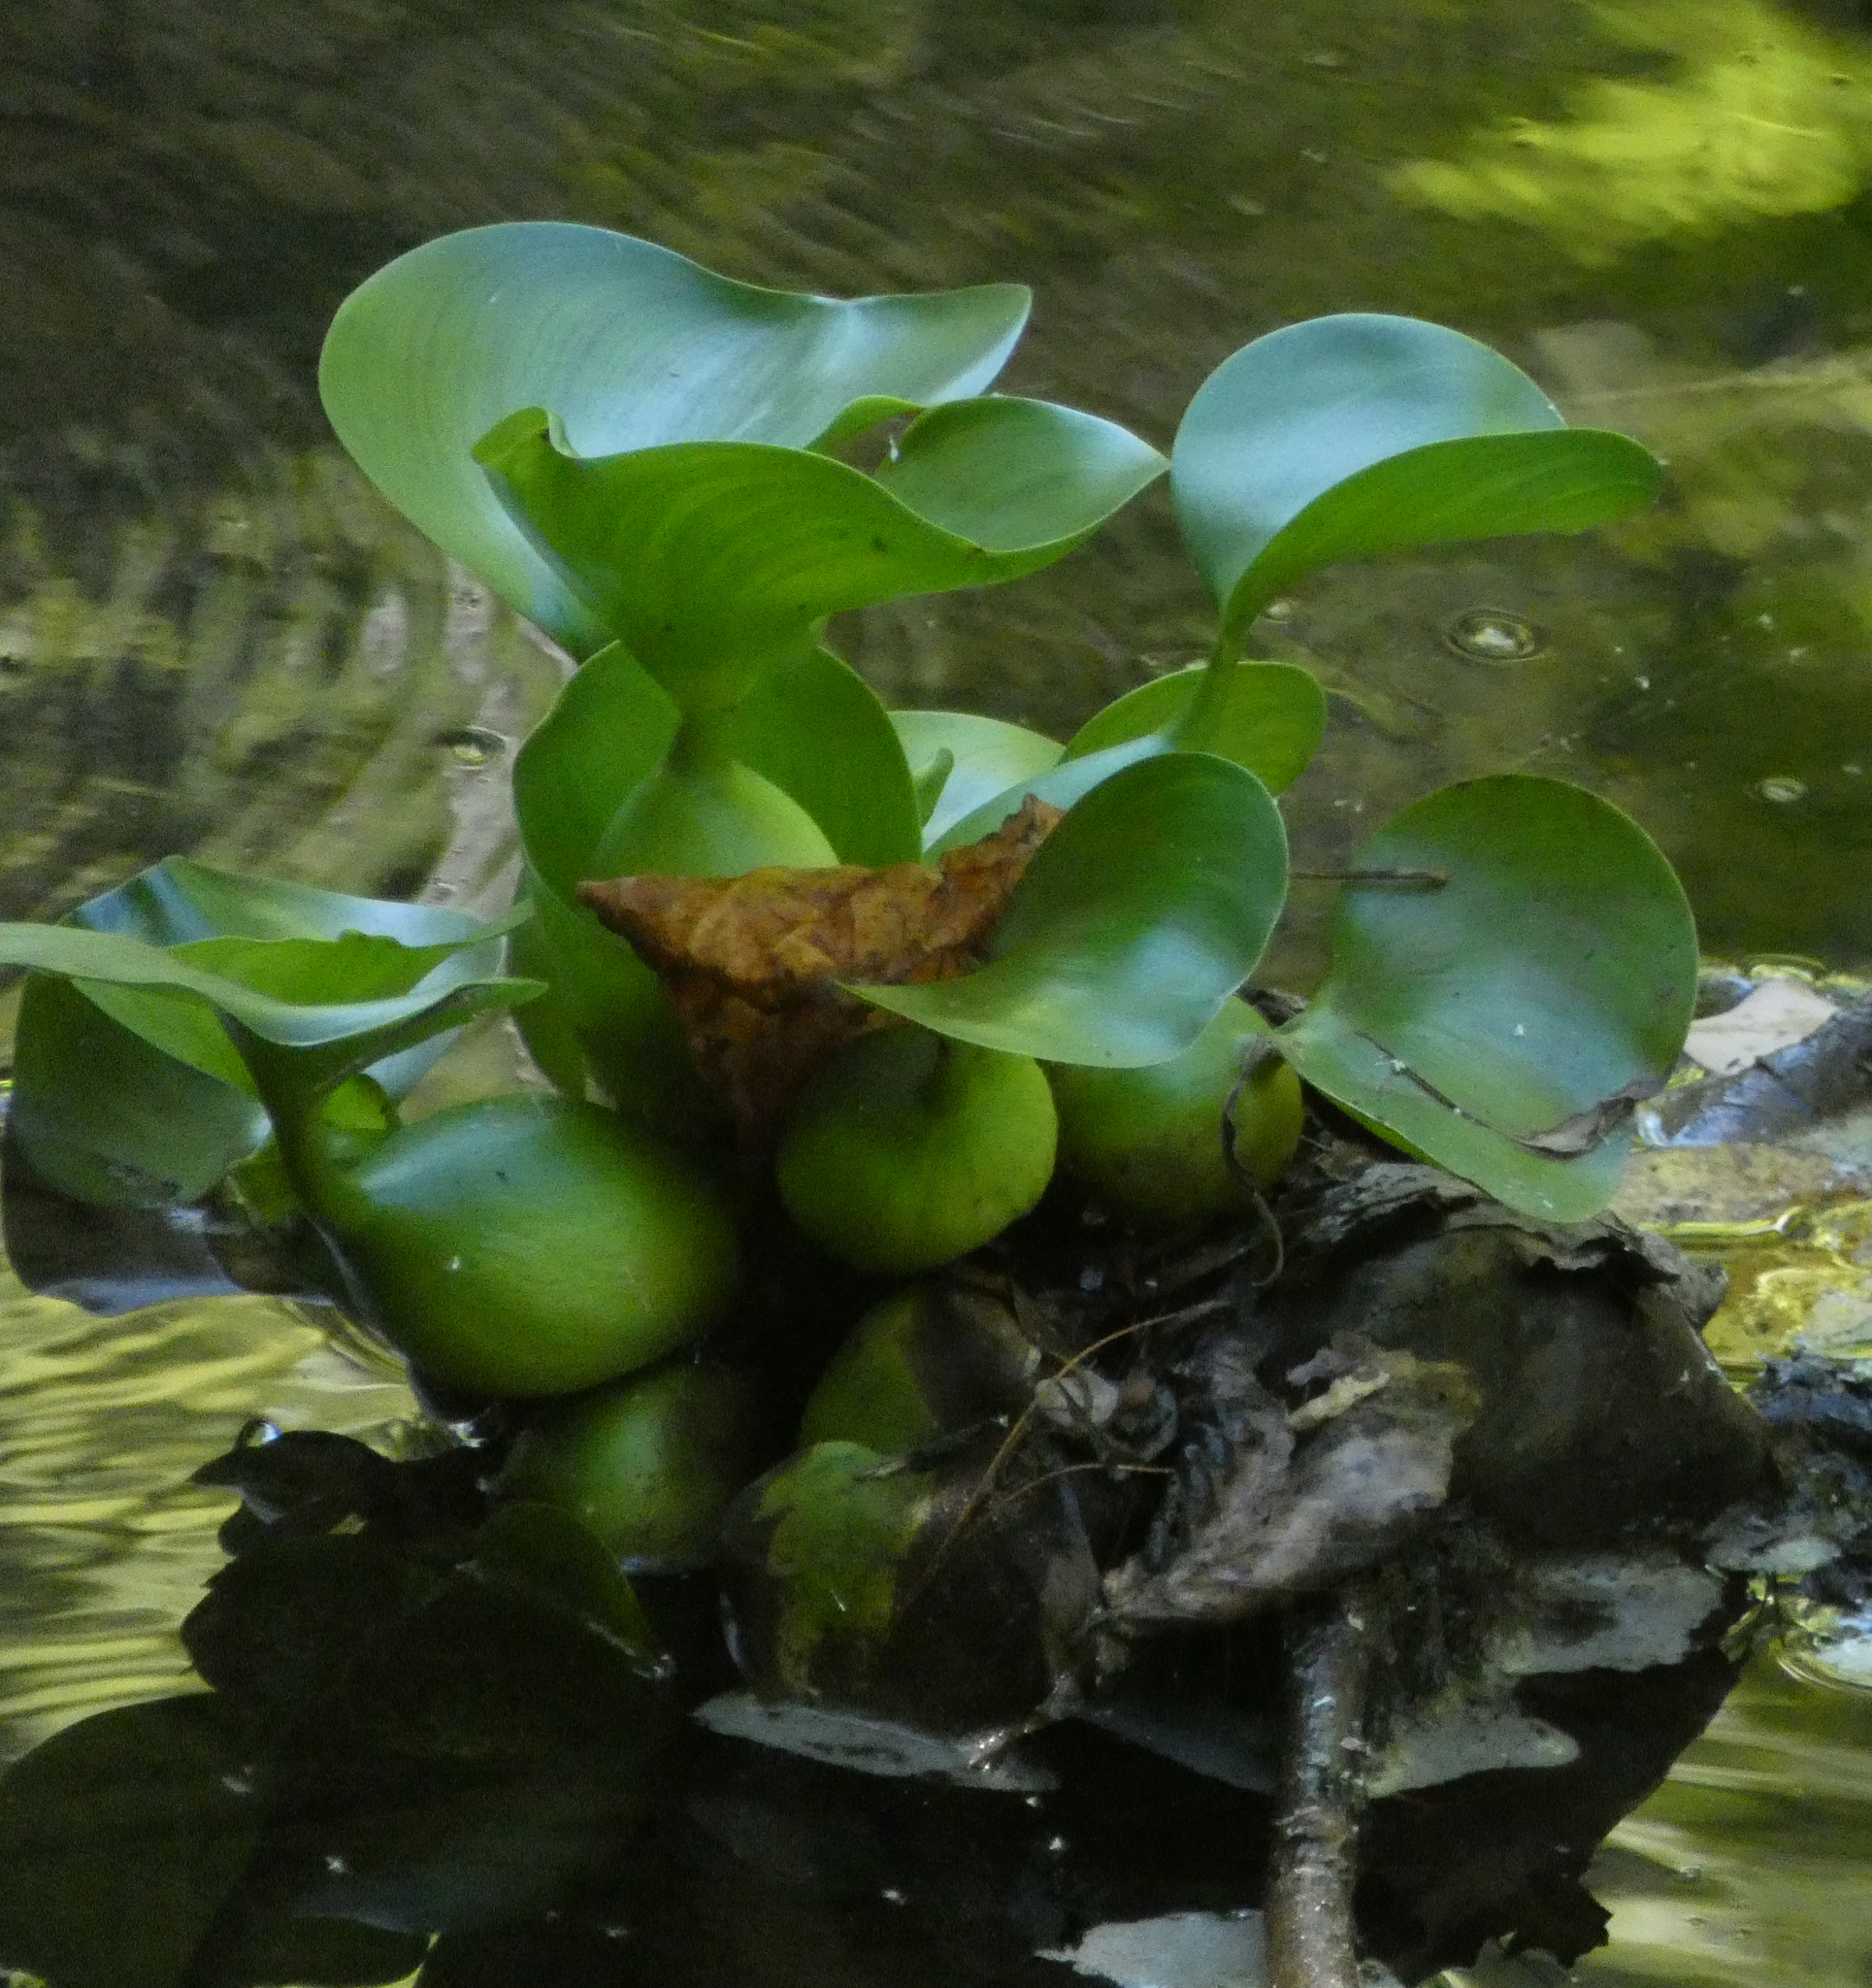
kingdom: Plantae
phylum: Tracheophyta
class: Liliopsida
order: Commelinales
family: Pontederiaceae
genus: Pontederia
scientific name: Pontederia crassipes
